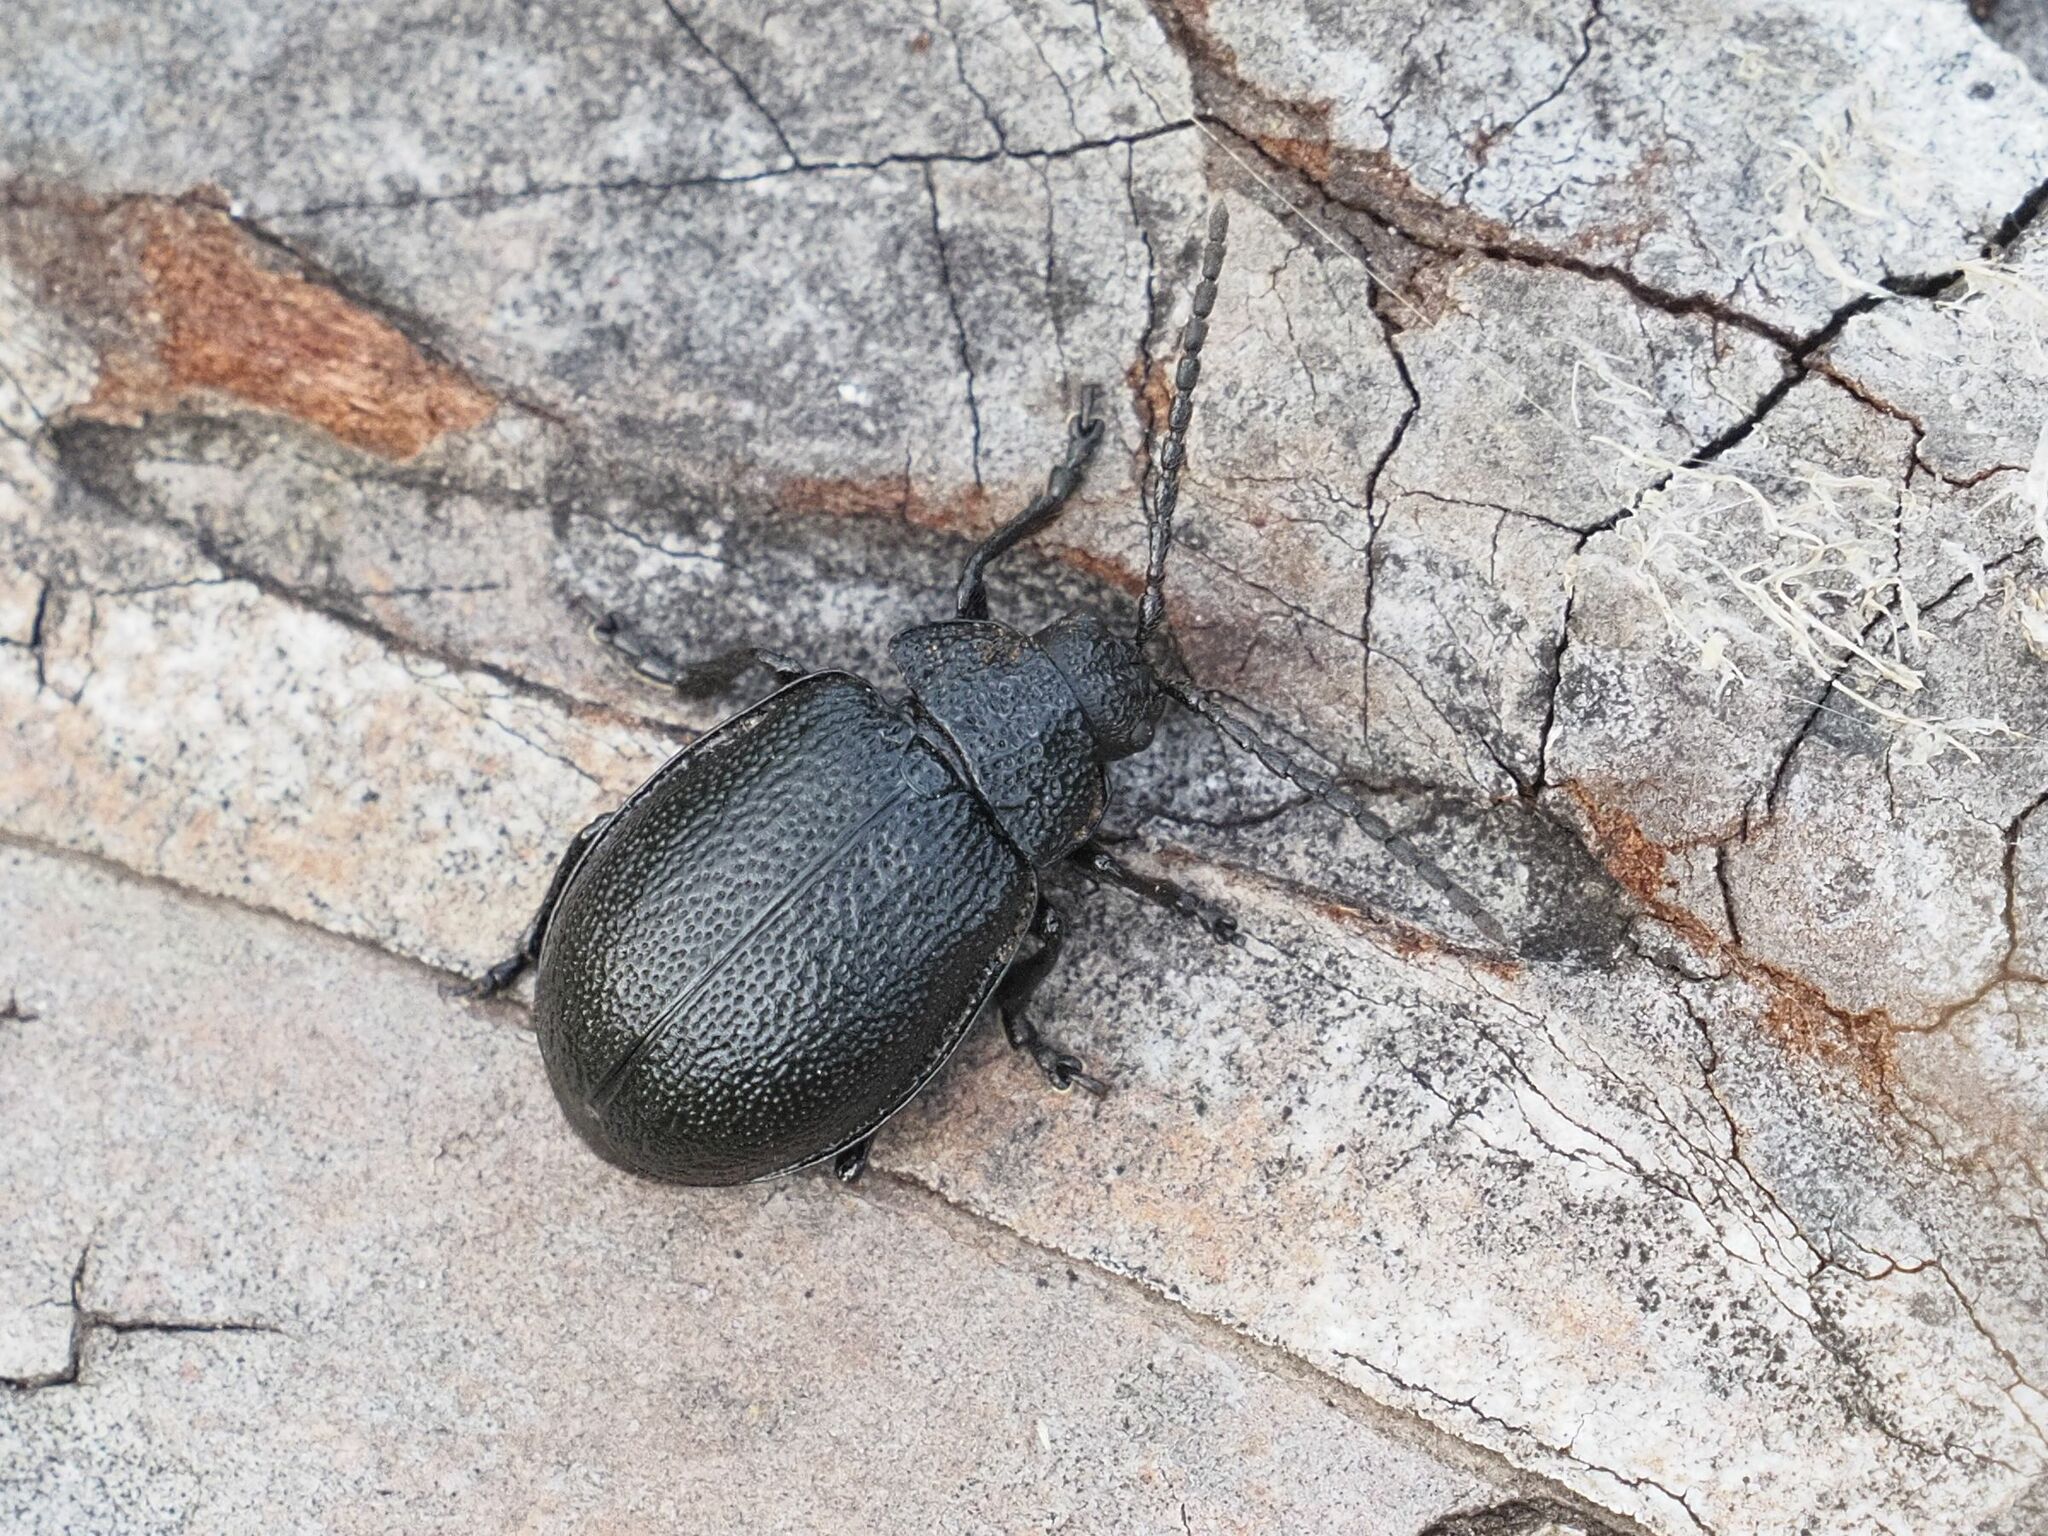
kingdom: Animalia
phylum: Arthropoda
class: Insecta
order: Coleoptera
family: Chrysomelidae
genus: Galeruca
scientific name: Galeruca tanaceti
